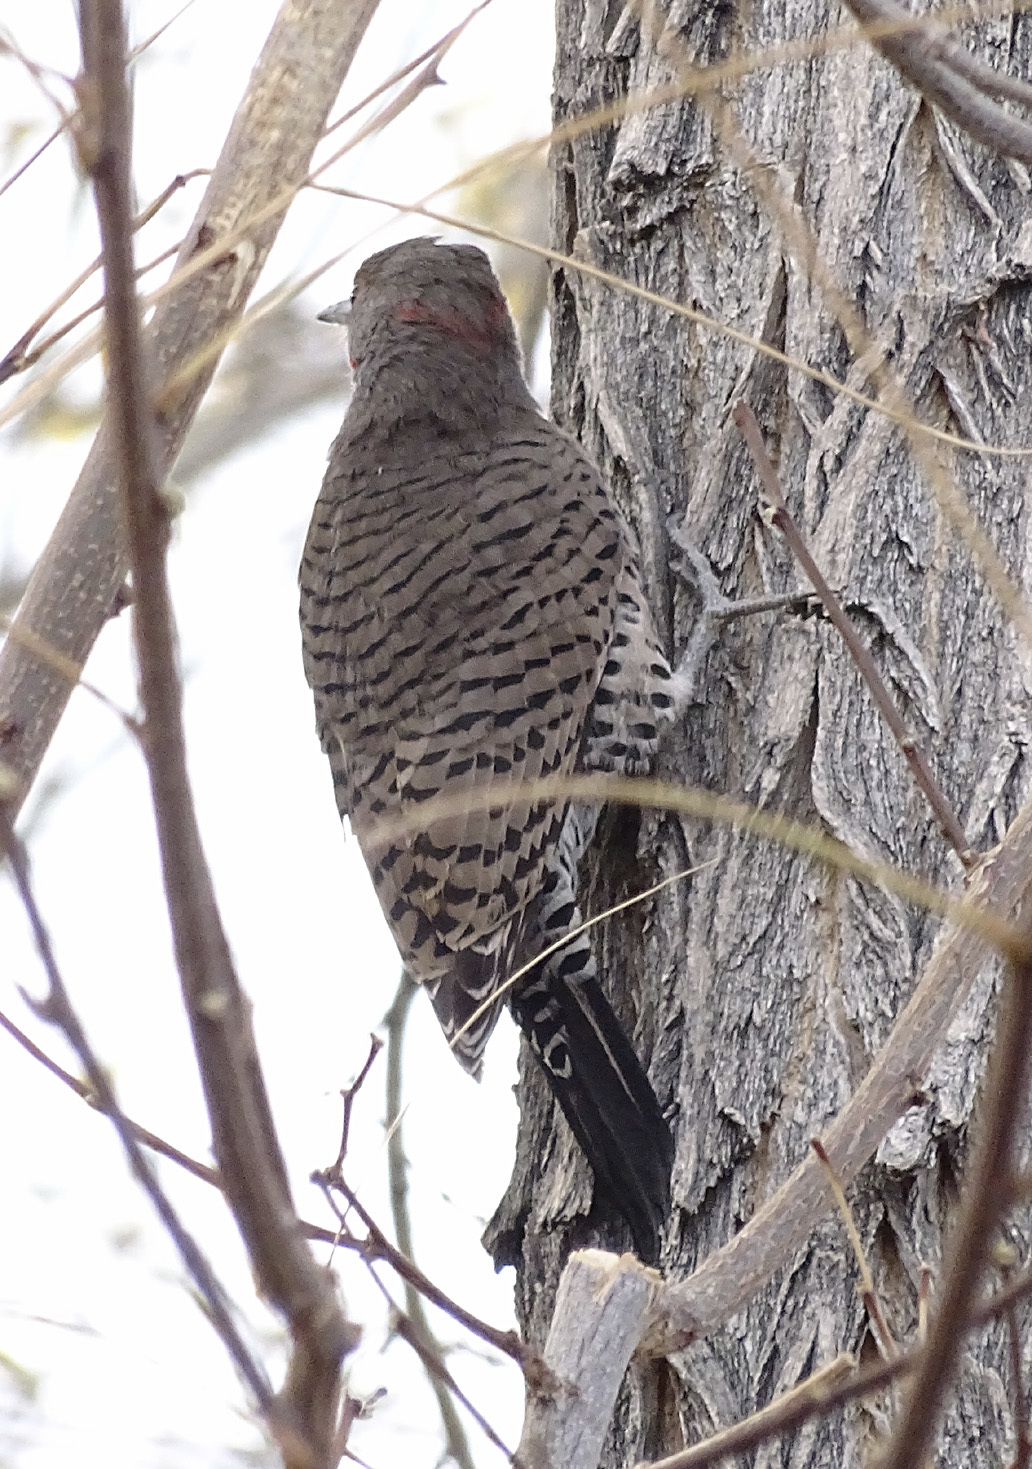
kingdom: Animalia
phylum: Chordata
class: Aves
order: Piciformes
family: Picidae
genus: Colaptes
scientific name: Colaptes
